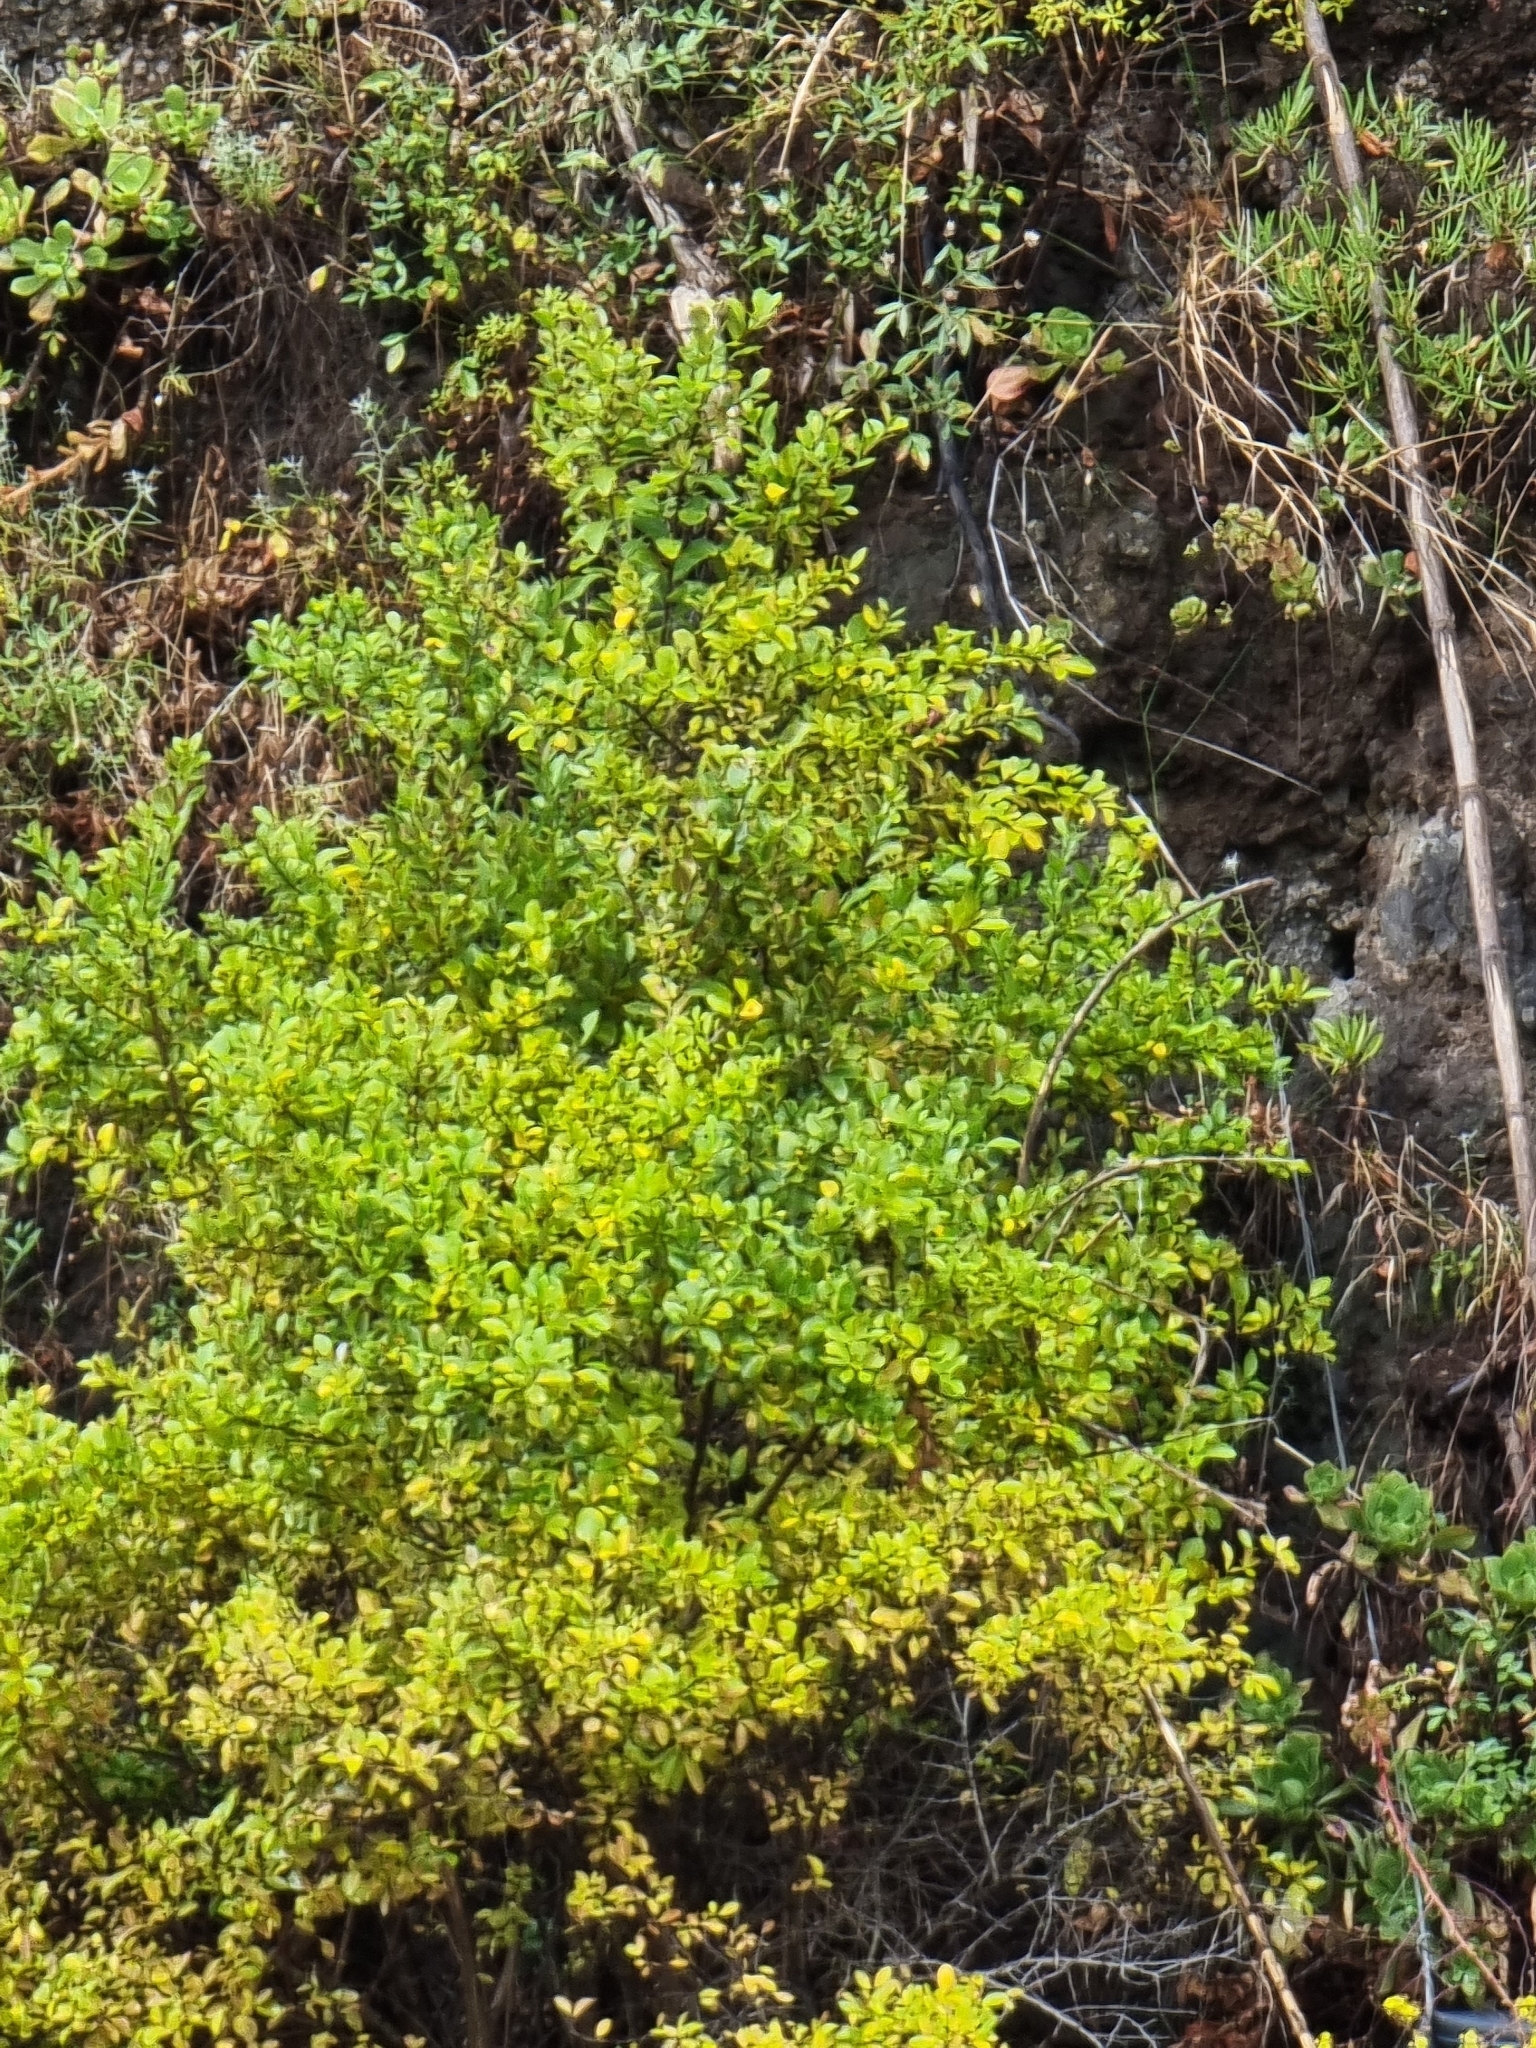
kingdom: Plantae
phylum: Tracheophyta
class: Magnoliopsida
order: Celastrales
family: Celastraceae
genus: Gymnosporia
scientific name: Gymnosporia dryandri
